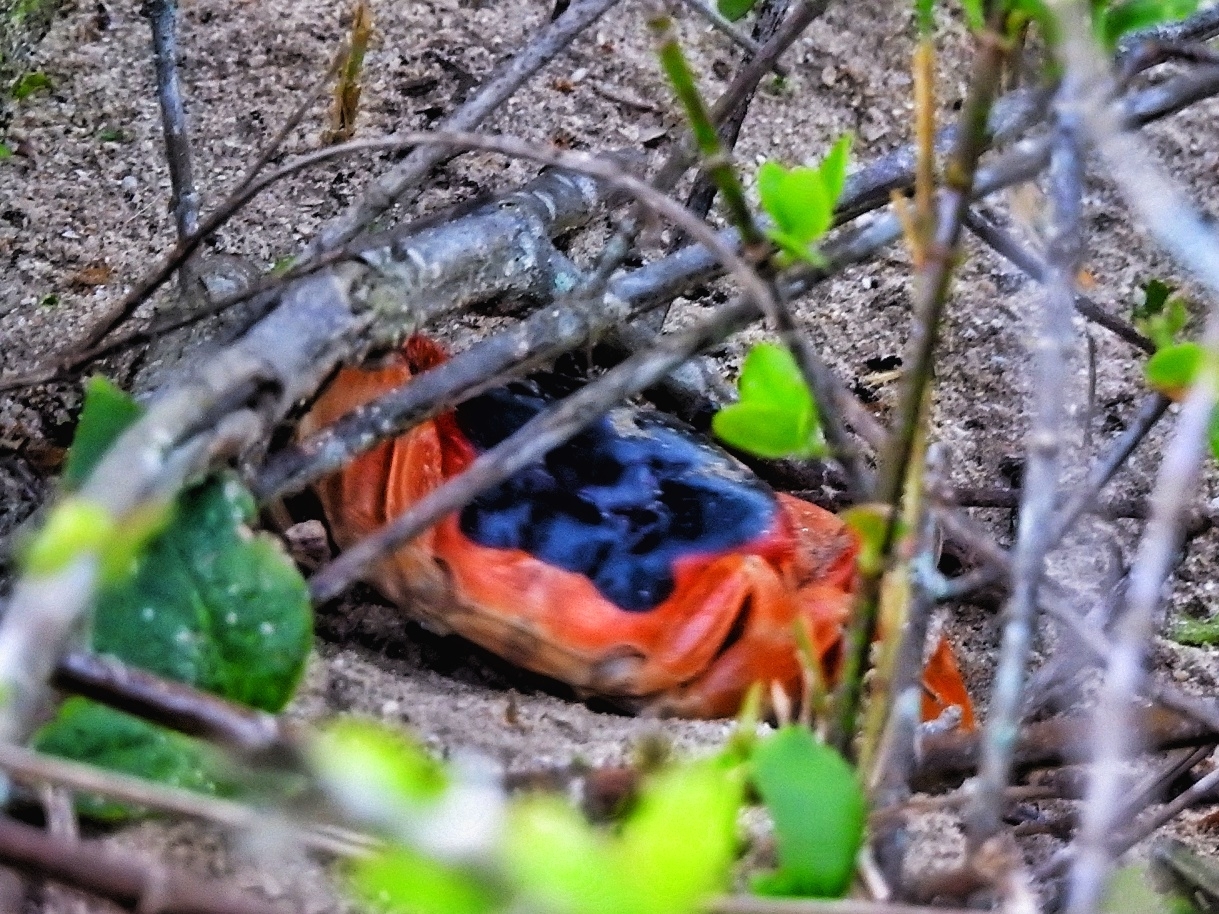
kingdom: Animalia
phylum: Arthropoda
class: Malacostraca
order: Decapoda
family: Gecarcinidae
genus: Gecarcinus
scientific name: Gecarcinus lateralis
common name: Bermuda land crab
